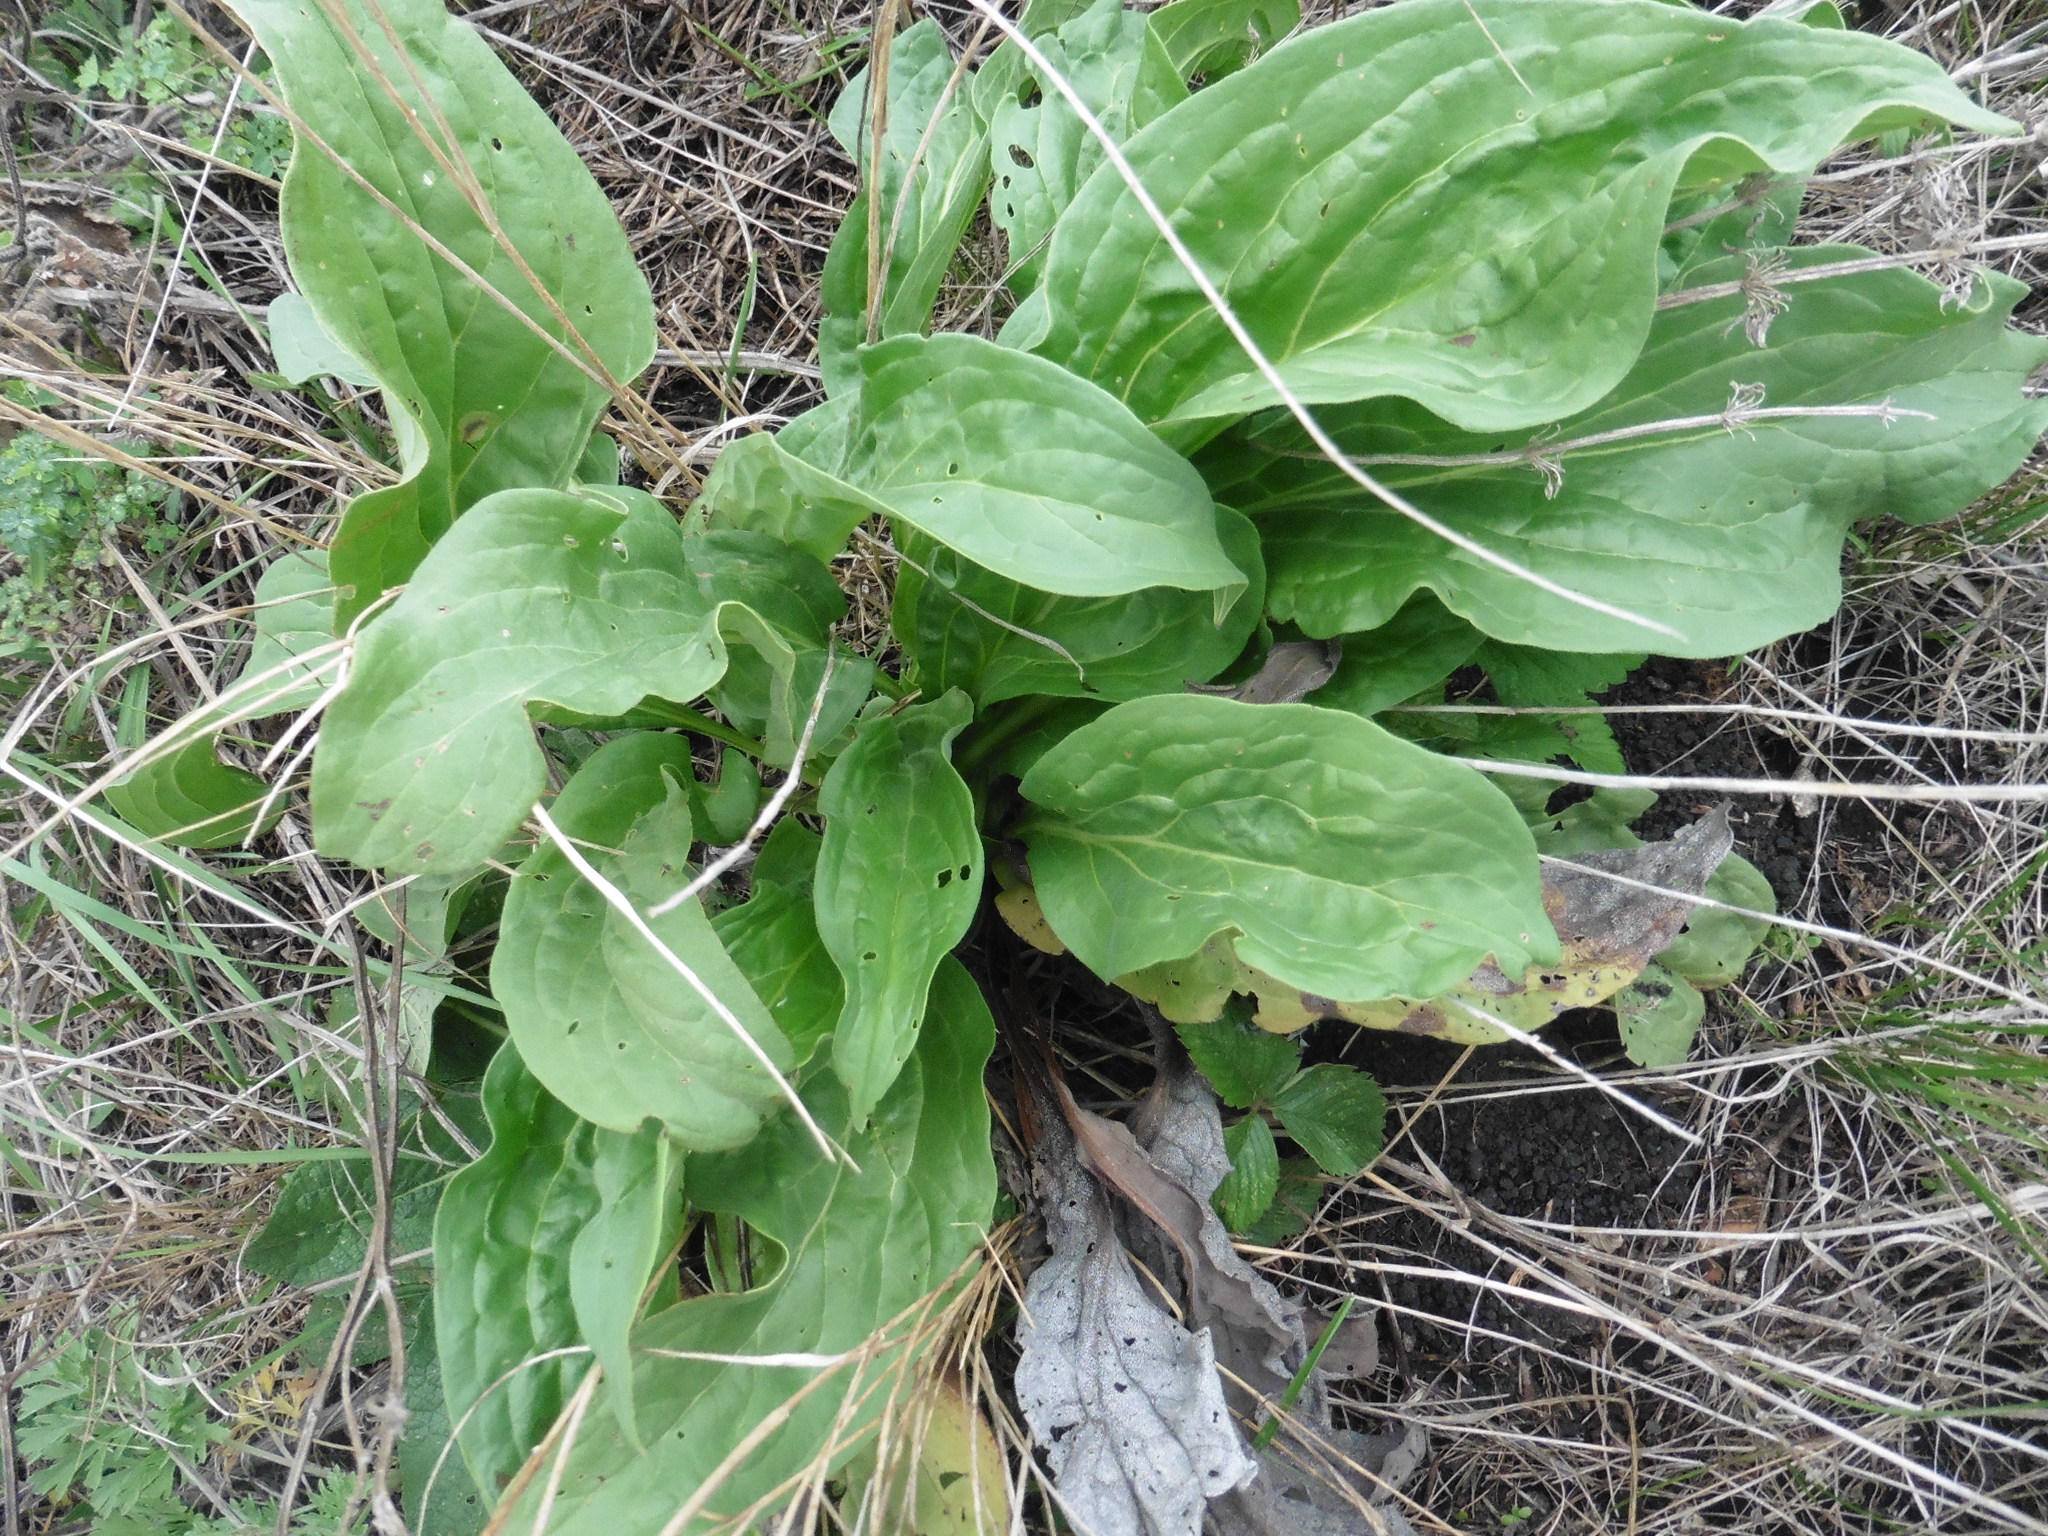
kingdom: Plantae
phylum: Tracheophyta
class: Magnoliopsida
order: Boraginales
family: Boraginaceae
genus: Cynoglossum
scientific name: Cynoglossum officinale
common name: Hound's-tongue
